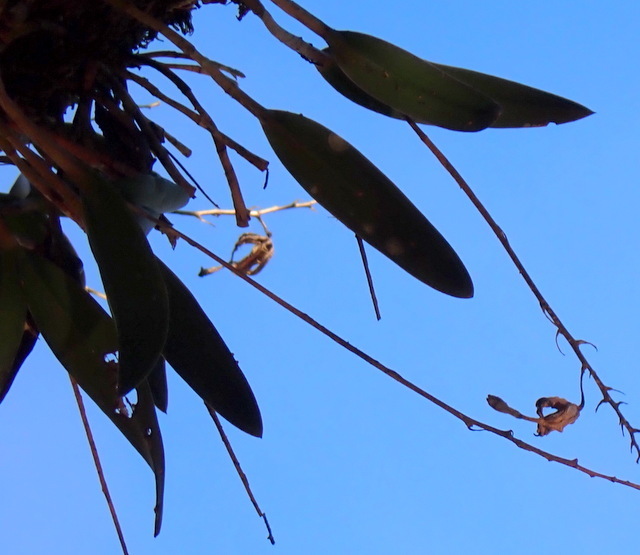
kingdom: Plantae
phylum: Tracheophyta
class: Liliopsida
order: Asparagales
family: Orchidaceae
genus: Epidendrum
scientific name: Epidendrum conopseum
